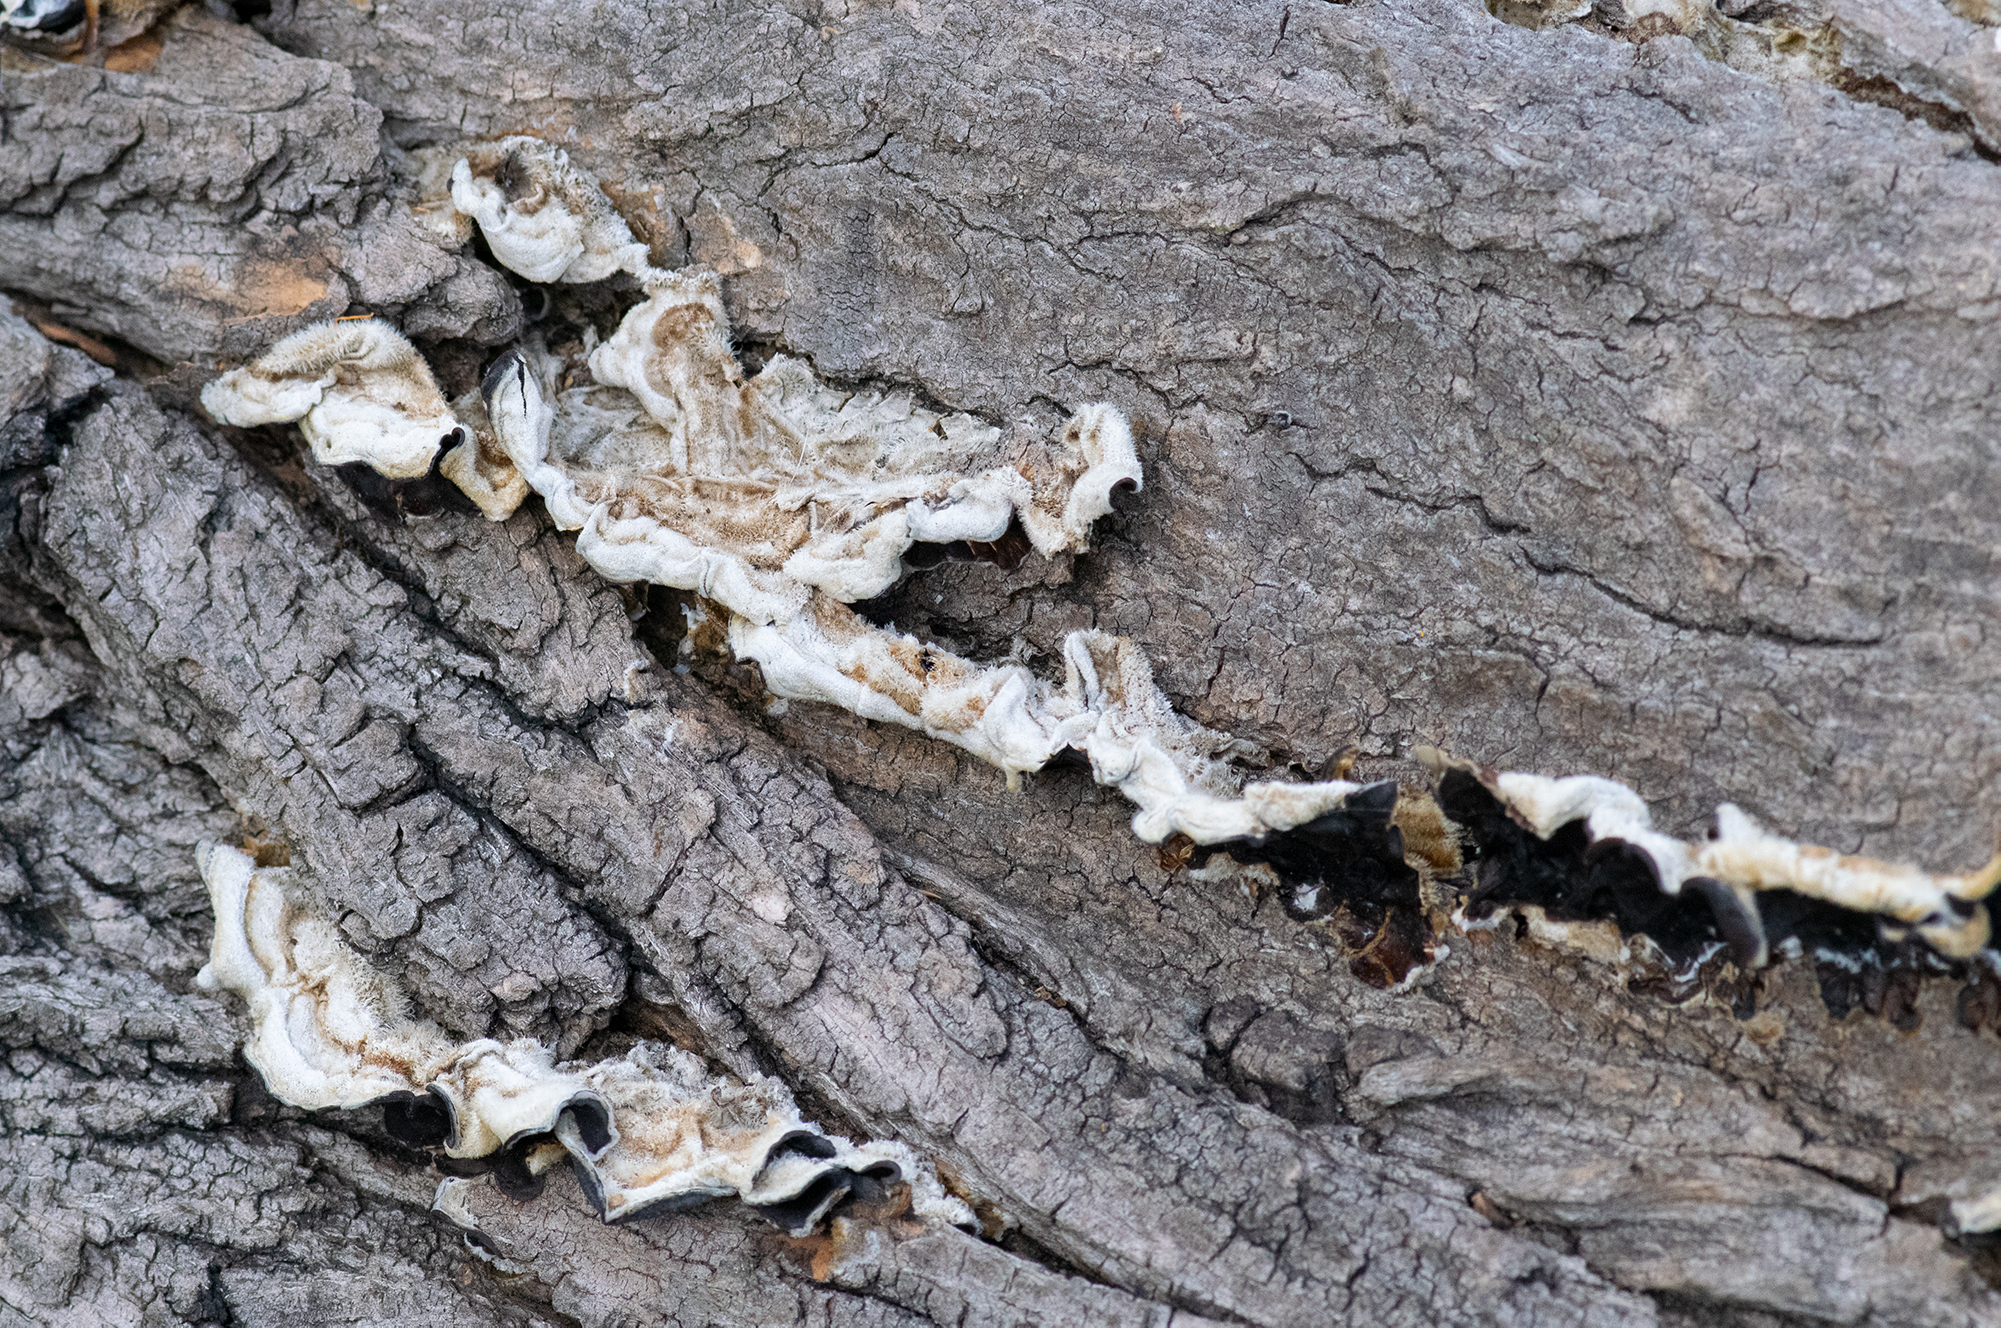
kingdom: Fungi
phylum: Basidiomycota
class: Agaricomycetes
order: Auriculariales
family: Auriculariaceae
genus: Auricularia
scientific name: Auricularia mesenterica
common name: Tripe fungus
